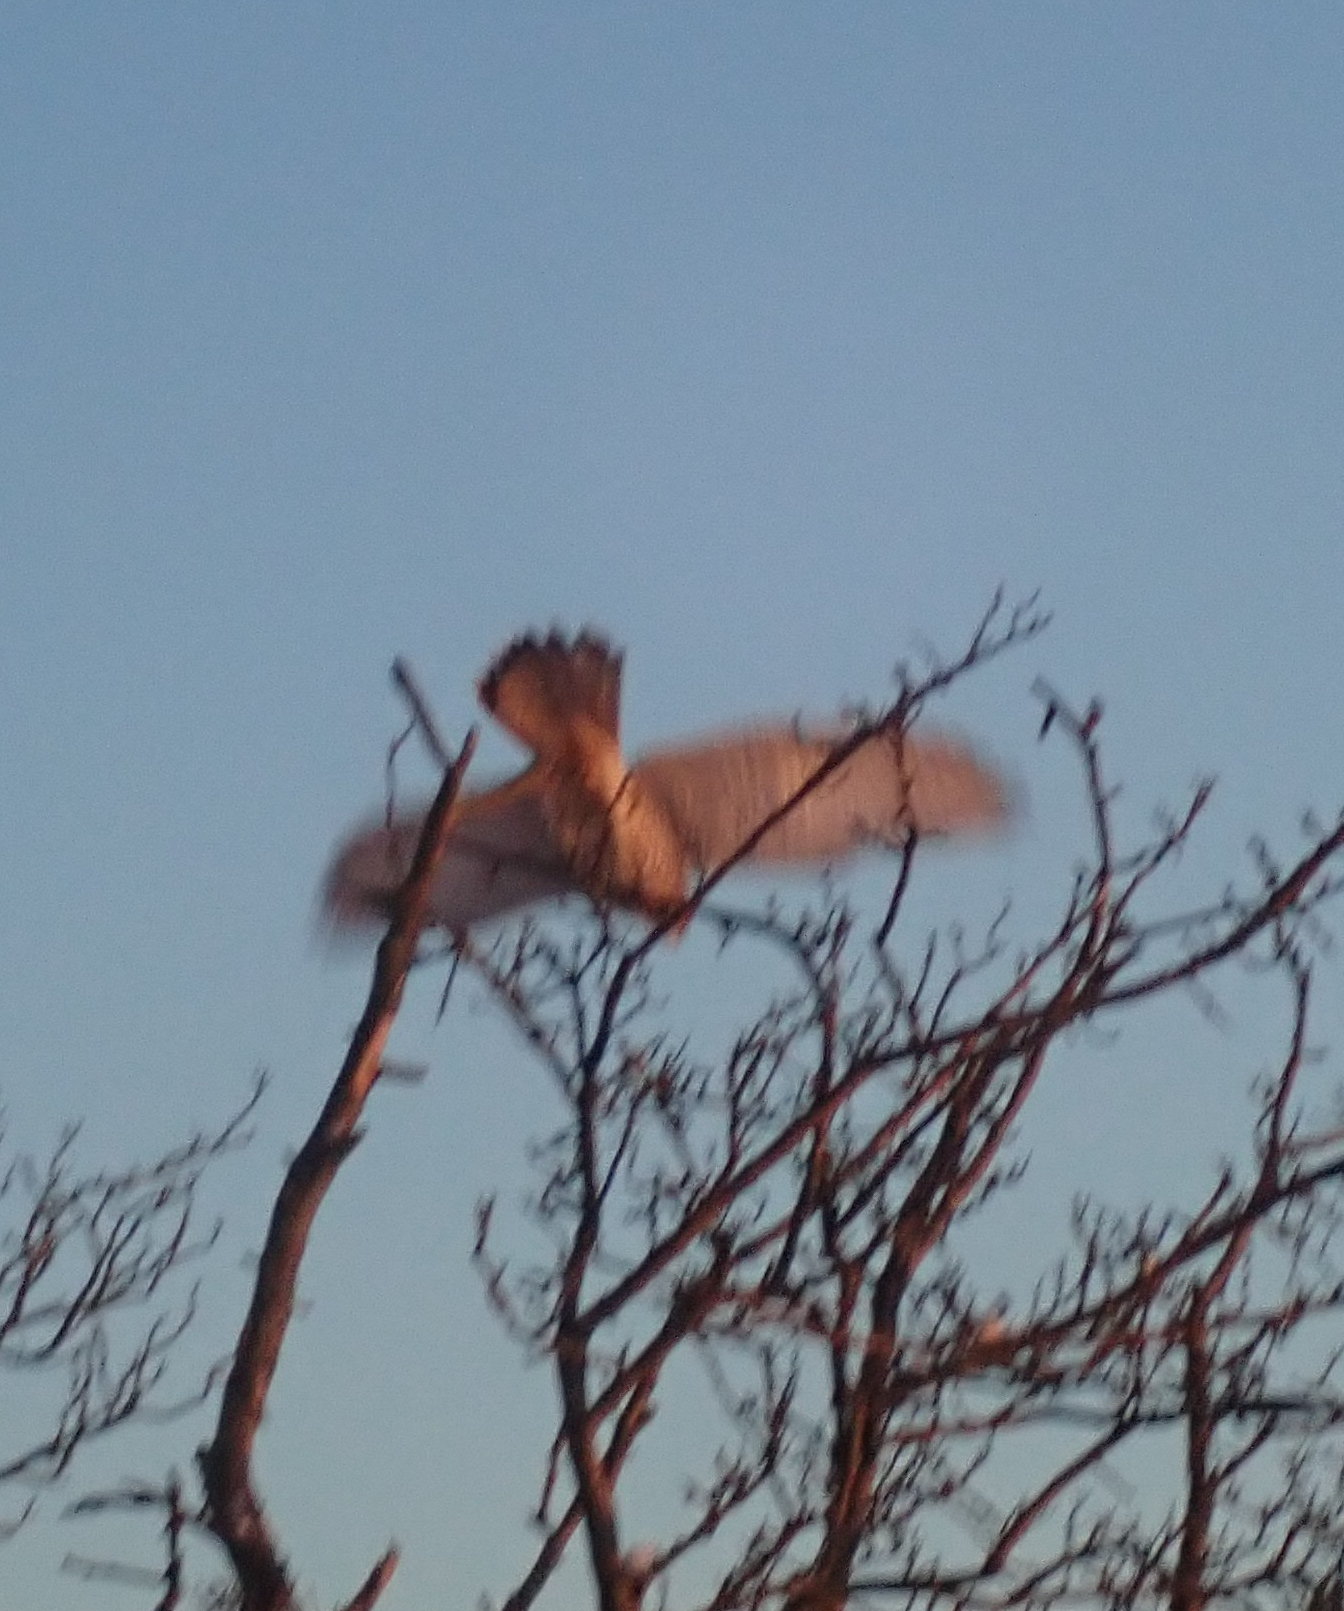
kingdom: Animalia
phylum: Chordata
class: Aves
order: Falconiformes
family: Falconidae
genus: Falco
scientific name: Falco tinnunculus
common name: Common kestrel
